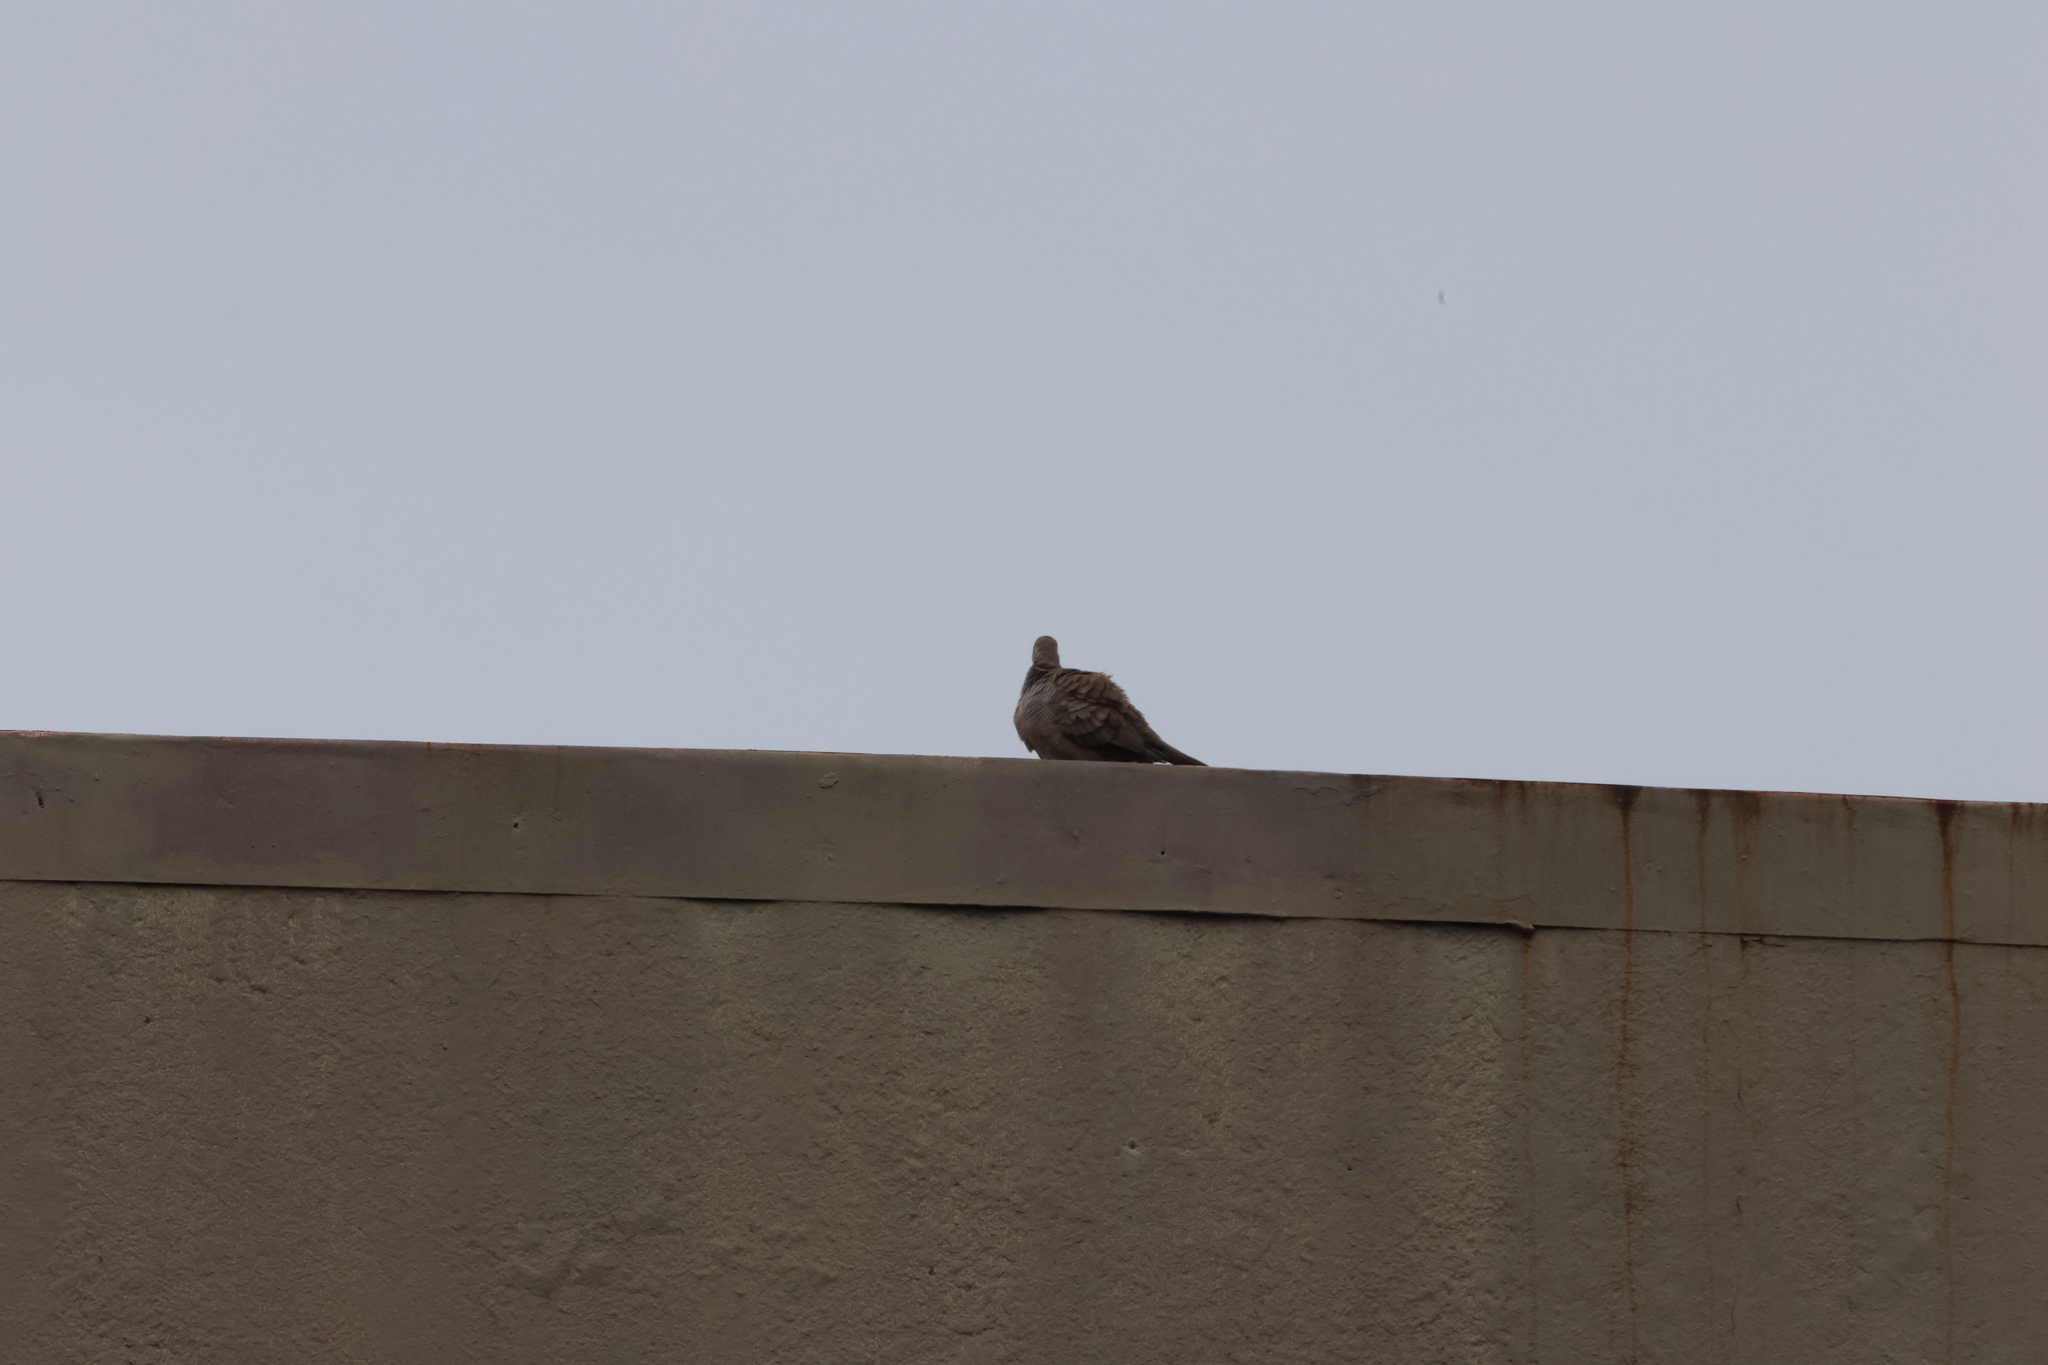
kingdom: Animalia
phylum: Chordata
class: Aves
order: Columbiformes
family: Columbidae
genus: Geopelia
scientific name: Geopelia striata
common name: Zebra dove
